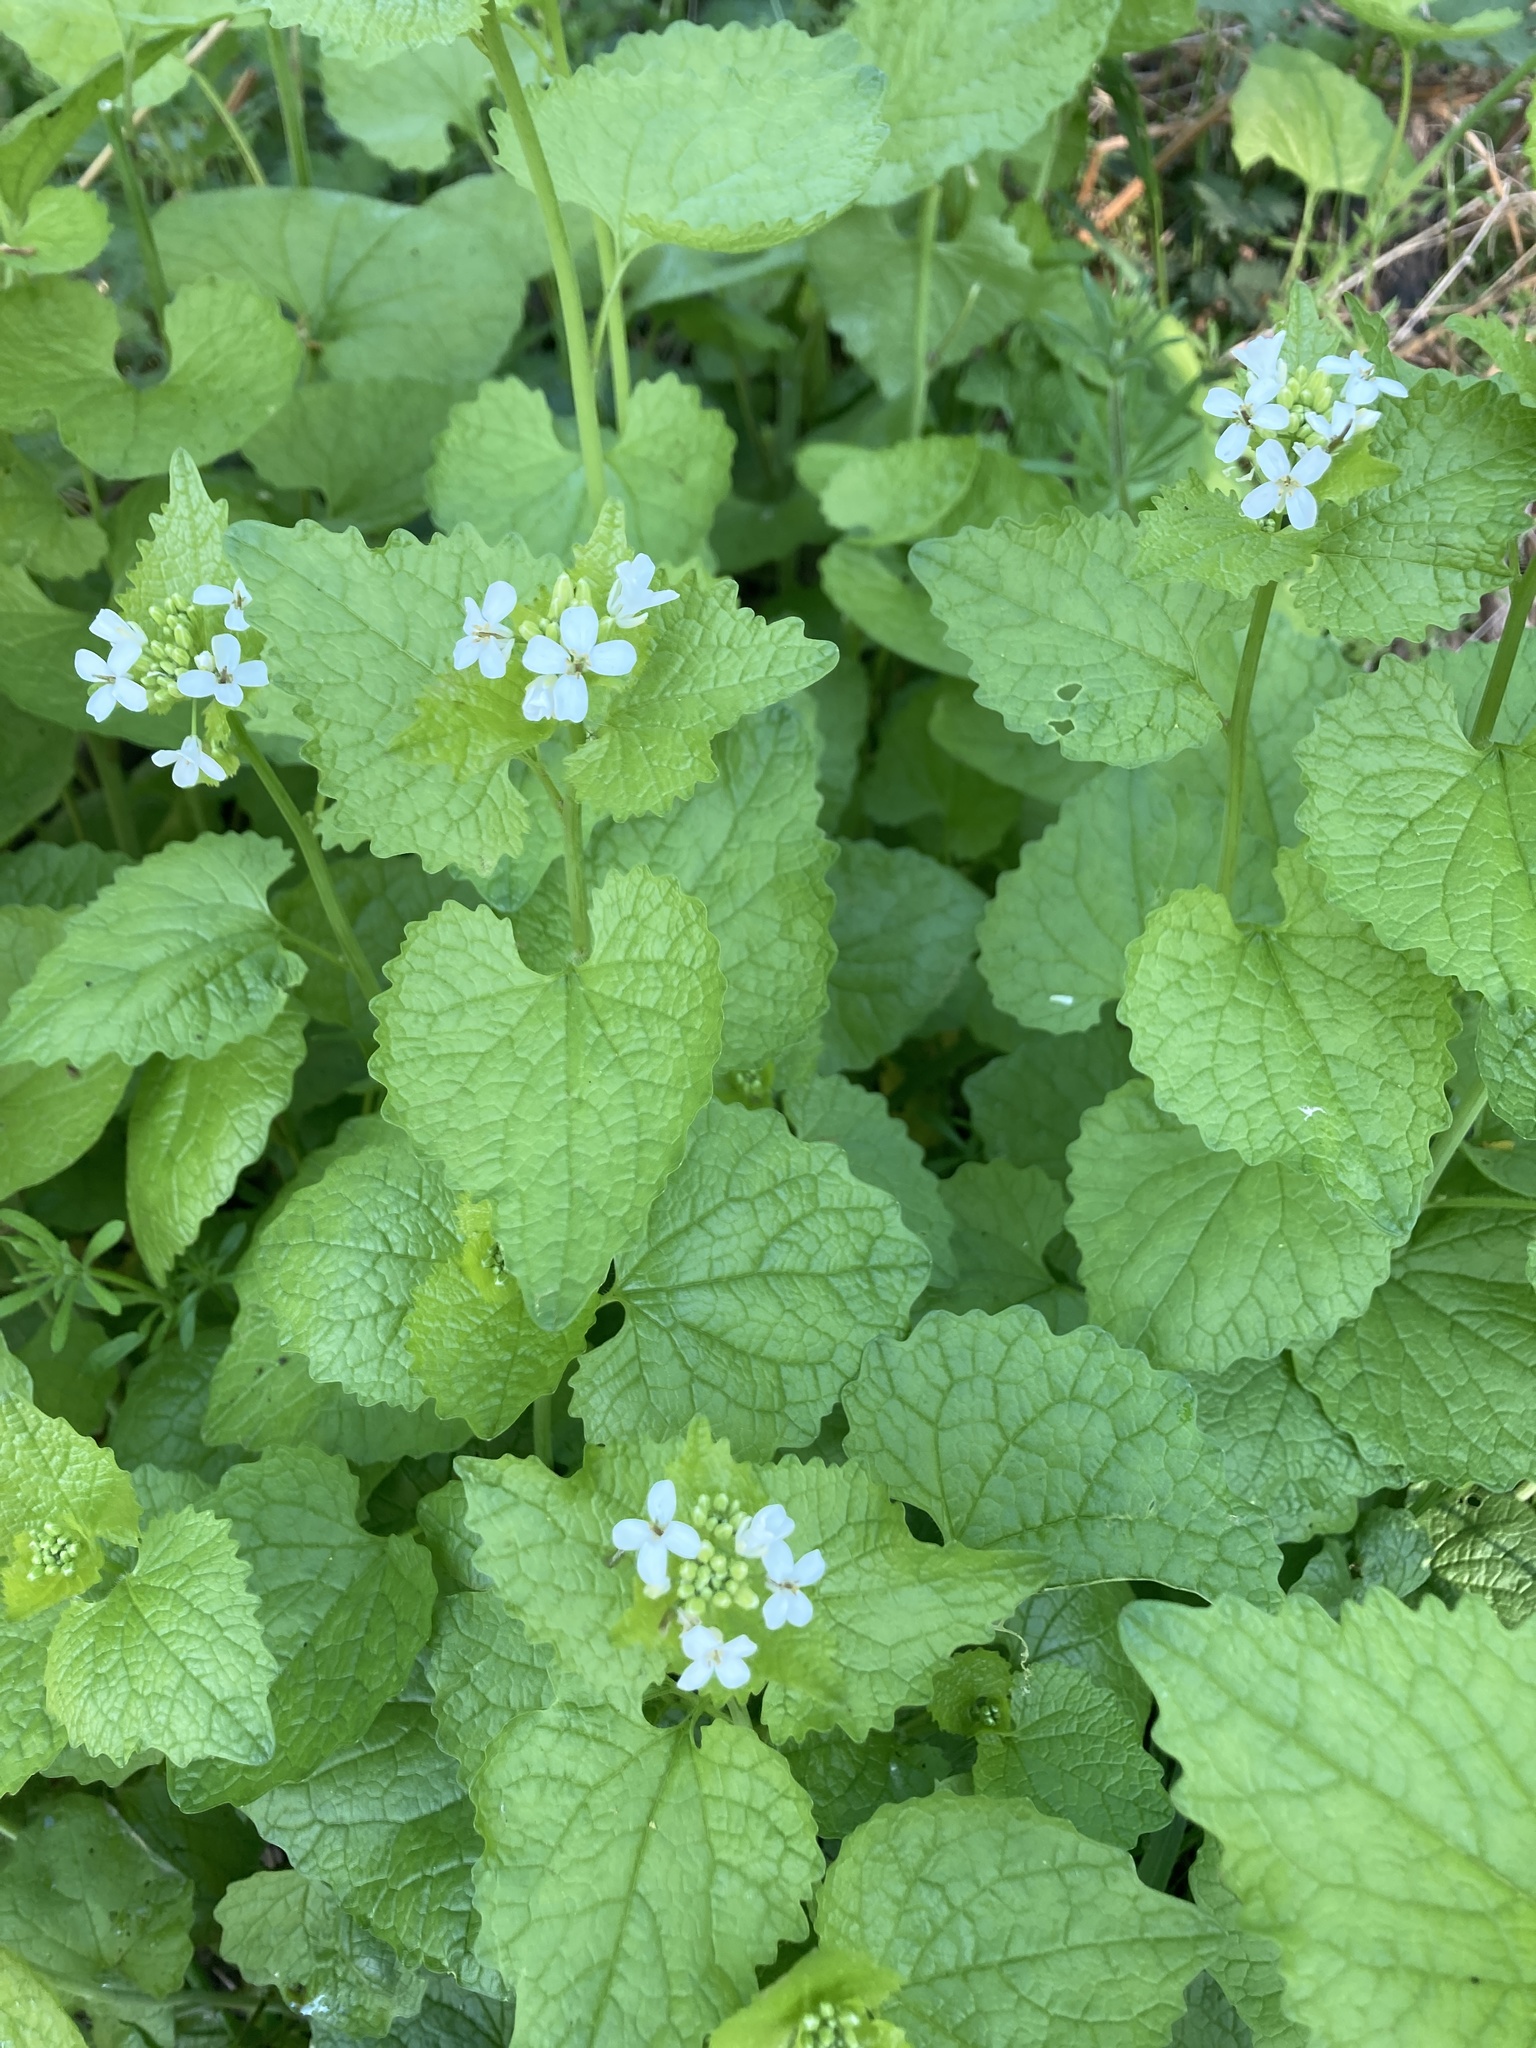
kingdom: Plantae
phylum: Tracheophyta
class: Magnoliopsida
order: Brassicales
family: Brassicaceae
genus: Alliaria
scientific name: Alliaria petiolata
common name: Garlic mustard
